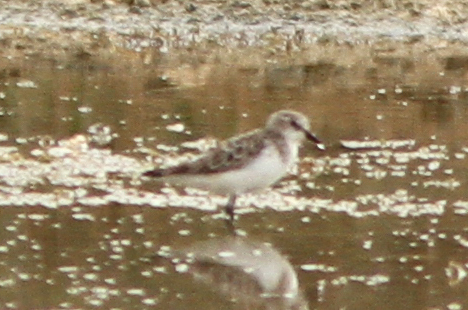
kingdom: Animalia
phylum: Chordata
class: Aves
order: Charadriiformes
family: Scolopacidae
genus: Calidris
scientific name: Calidris minuta
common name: Little stint
